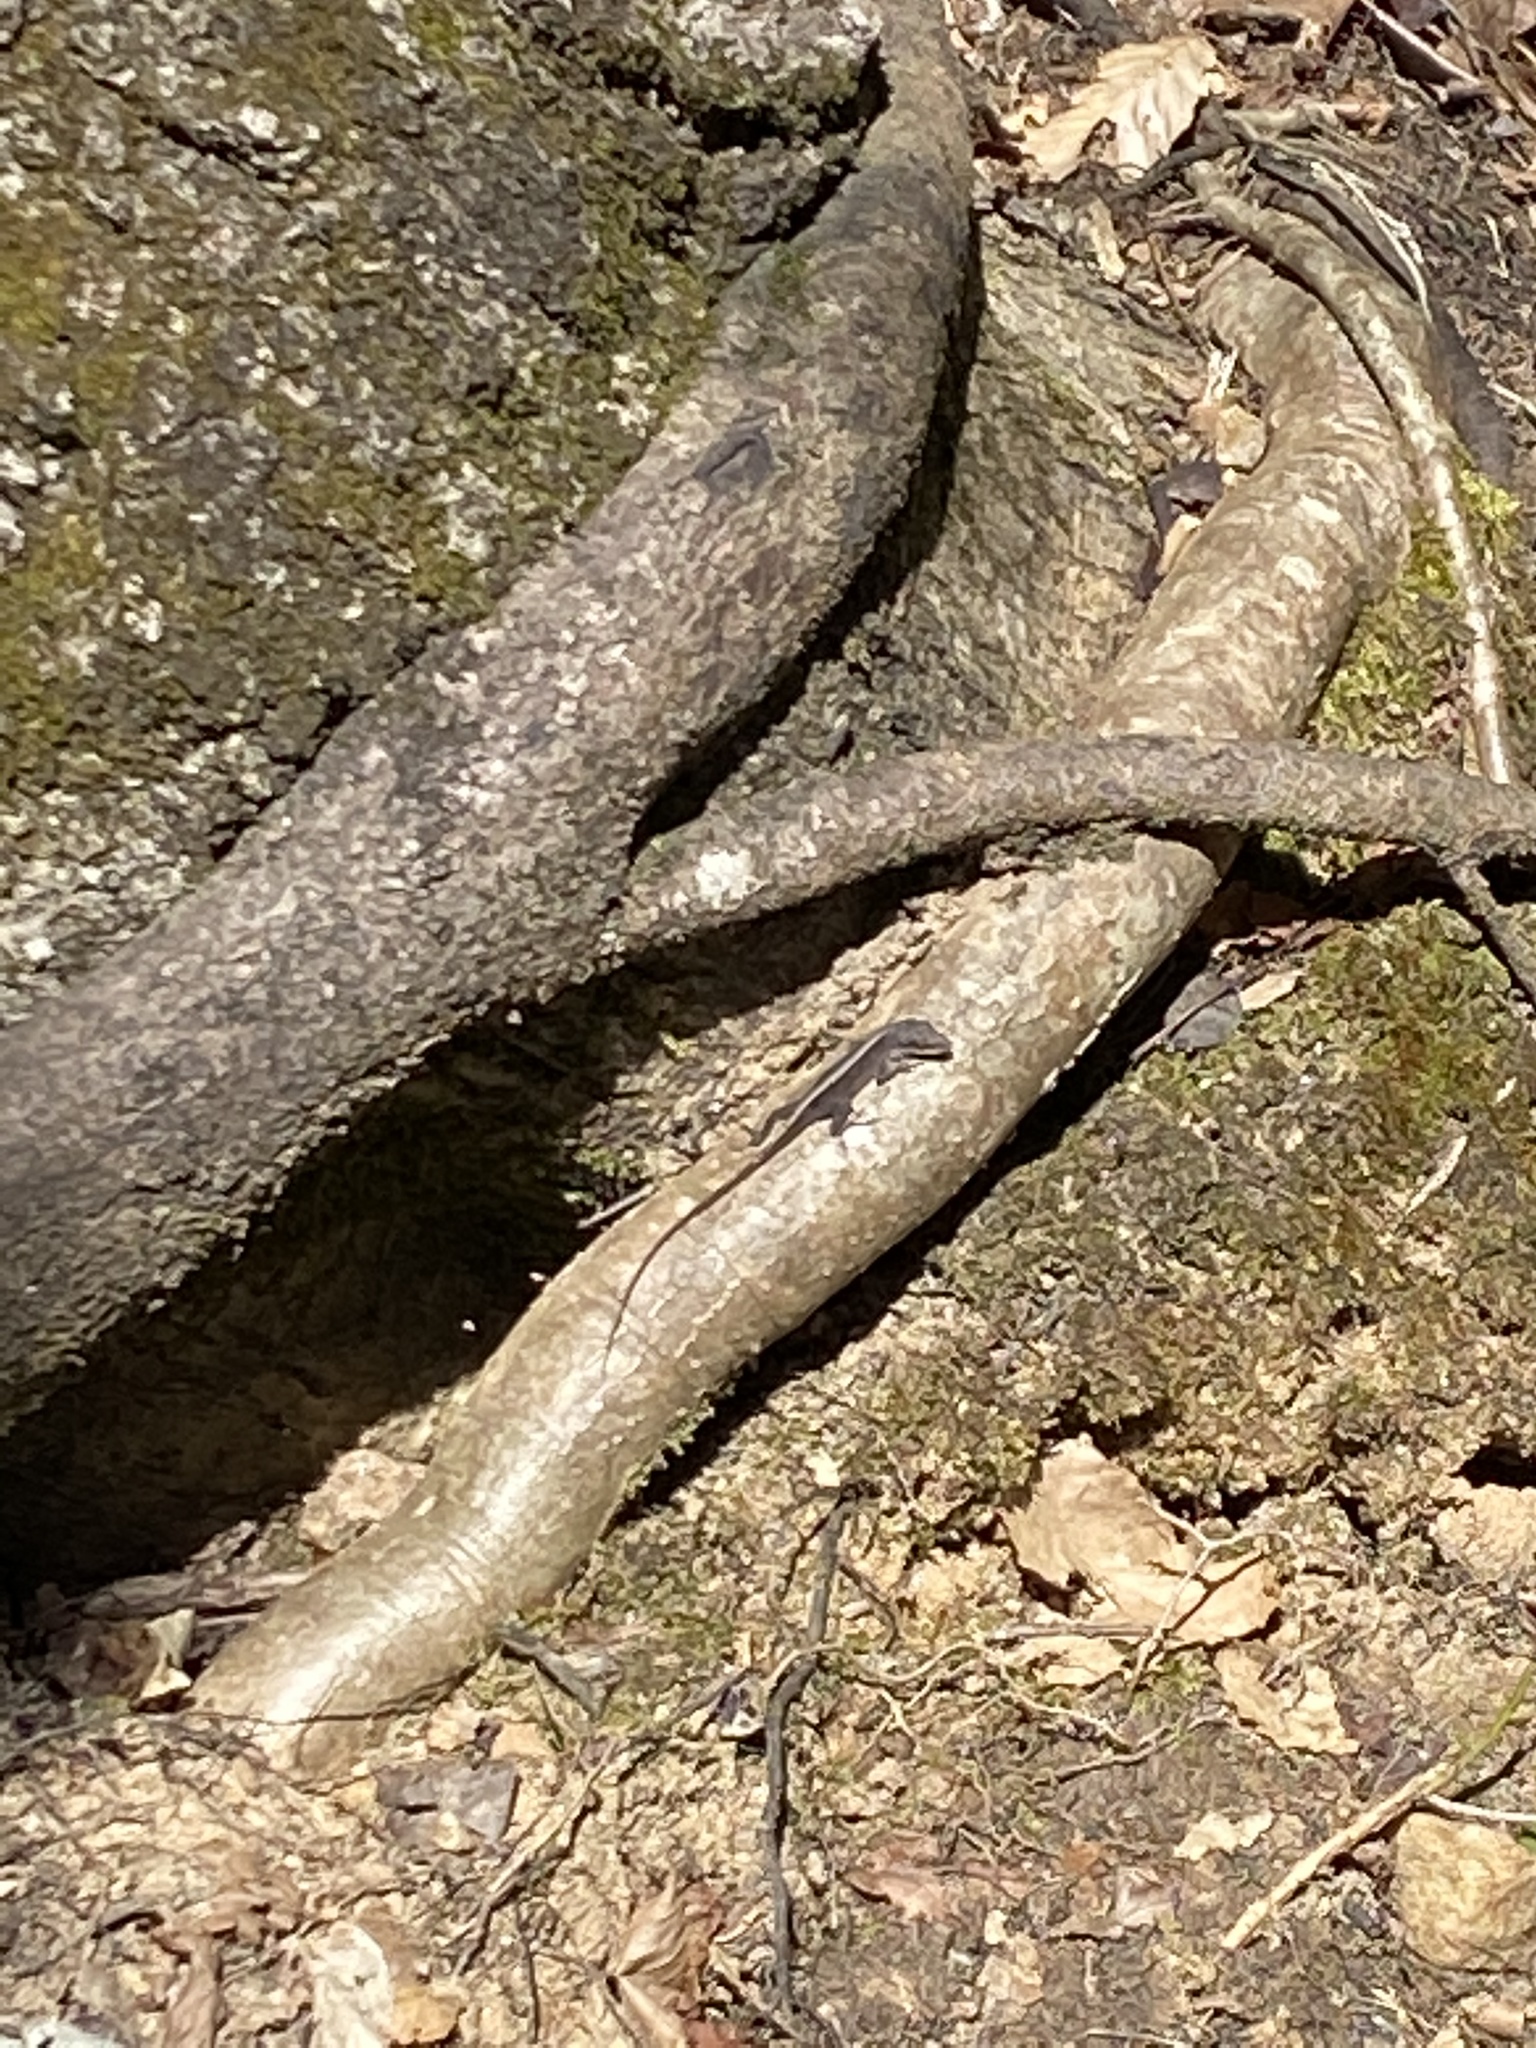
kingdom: Animalia
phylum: Chordata
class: Squamata
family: Dactyloidae
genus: Anolis
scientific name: Anolis carolinensis
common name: Green anole
